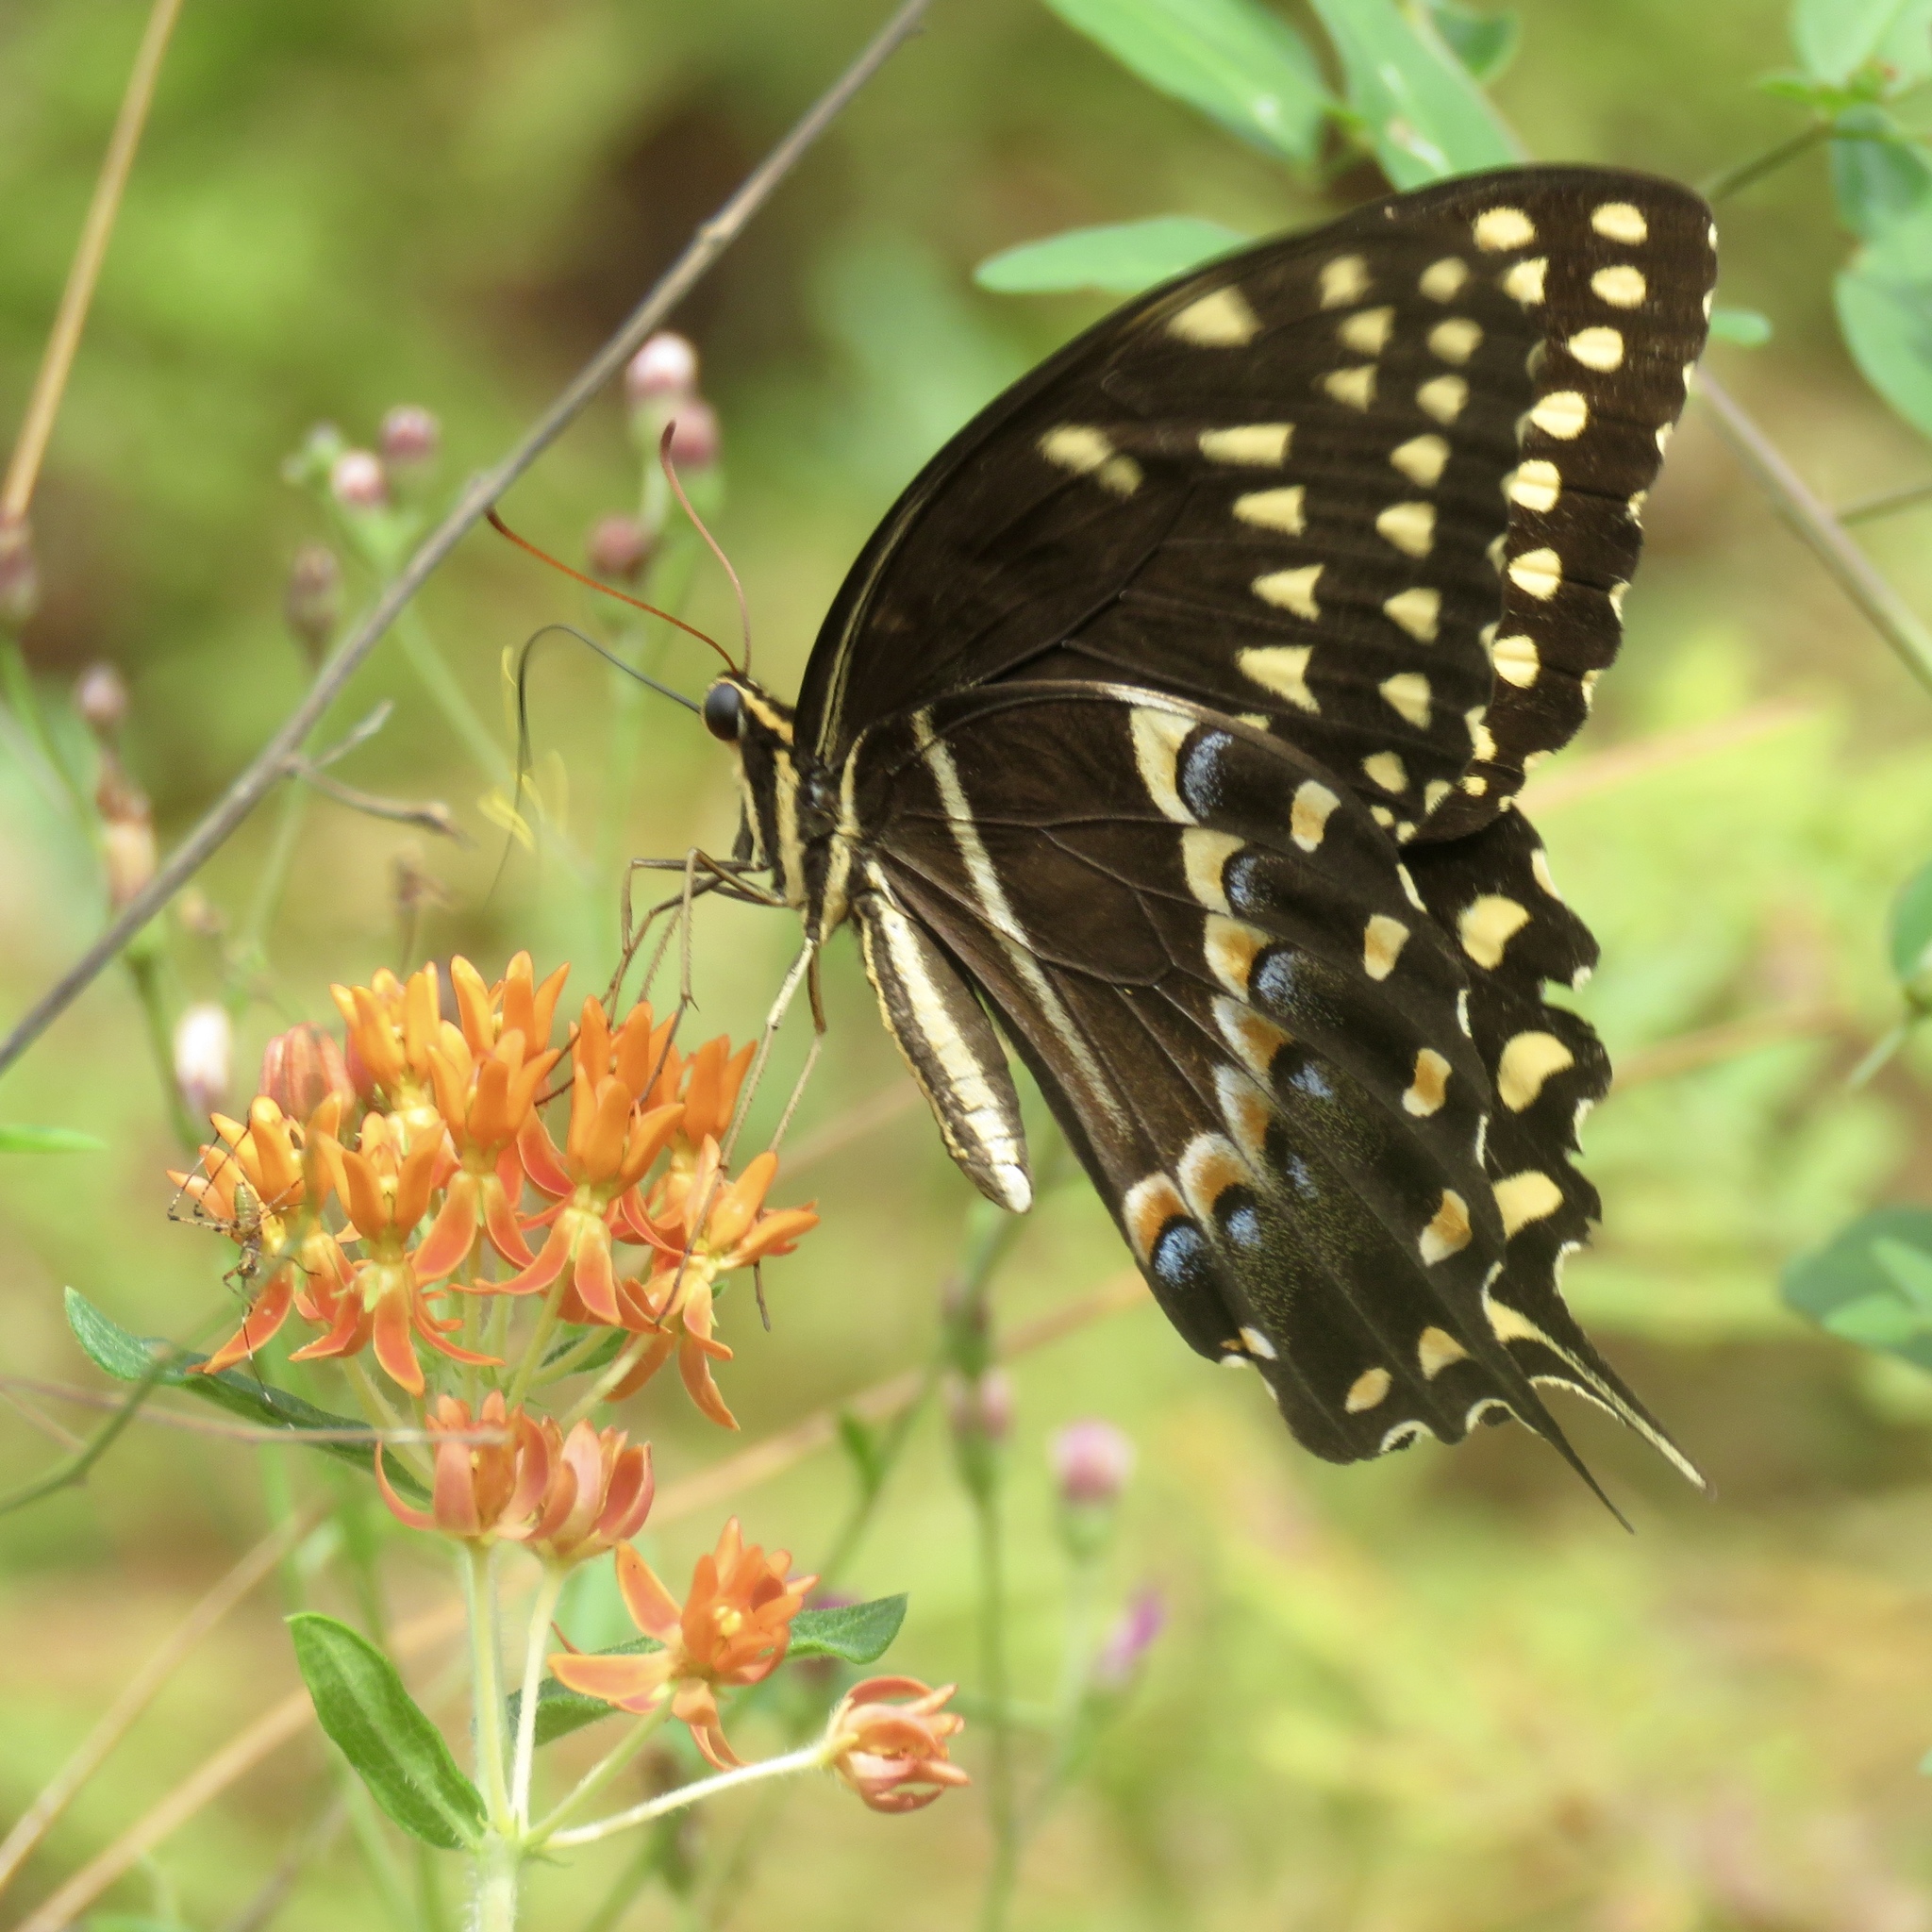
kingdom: Animalia
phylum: Arthropoda
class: Insecta
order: Lepidoptera
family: Papilionidae
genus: Papilio
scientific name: Papilio palamedes
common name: Palamedes swallowtail
